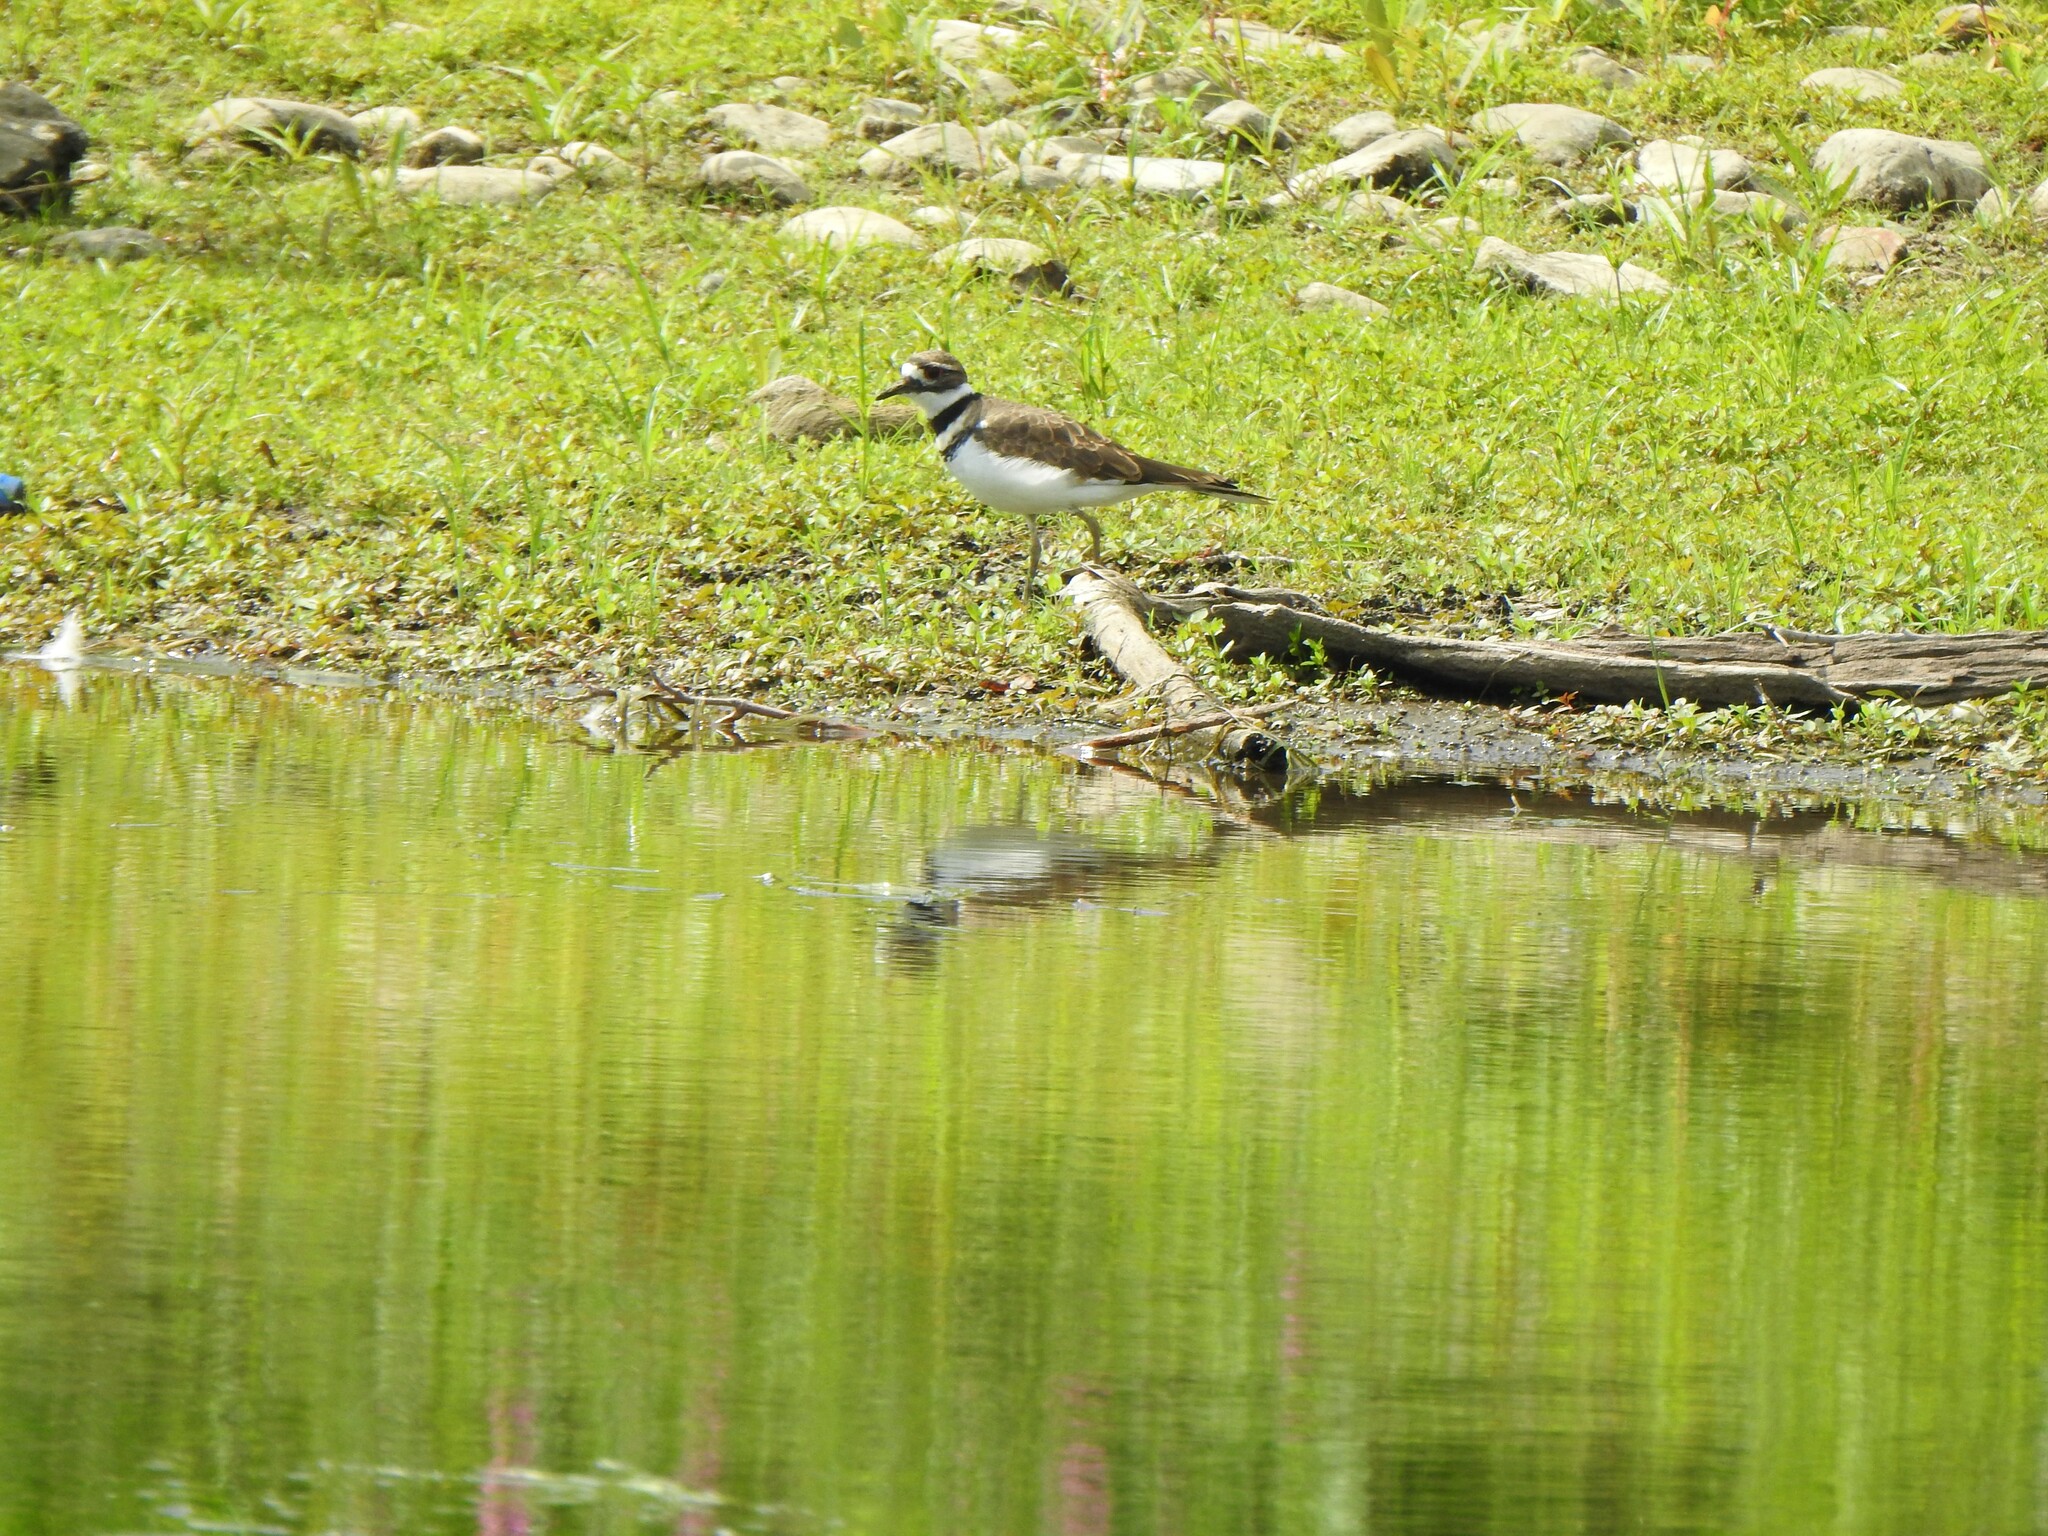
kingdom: Animalia
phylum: Chordata
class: Aves
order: Charadriiformes
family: Charadriidae
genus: Charadrius
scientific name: Charadrius vociferus
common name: Killdeer
